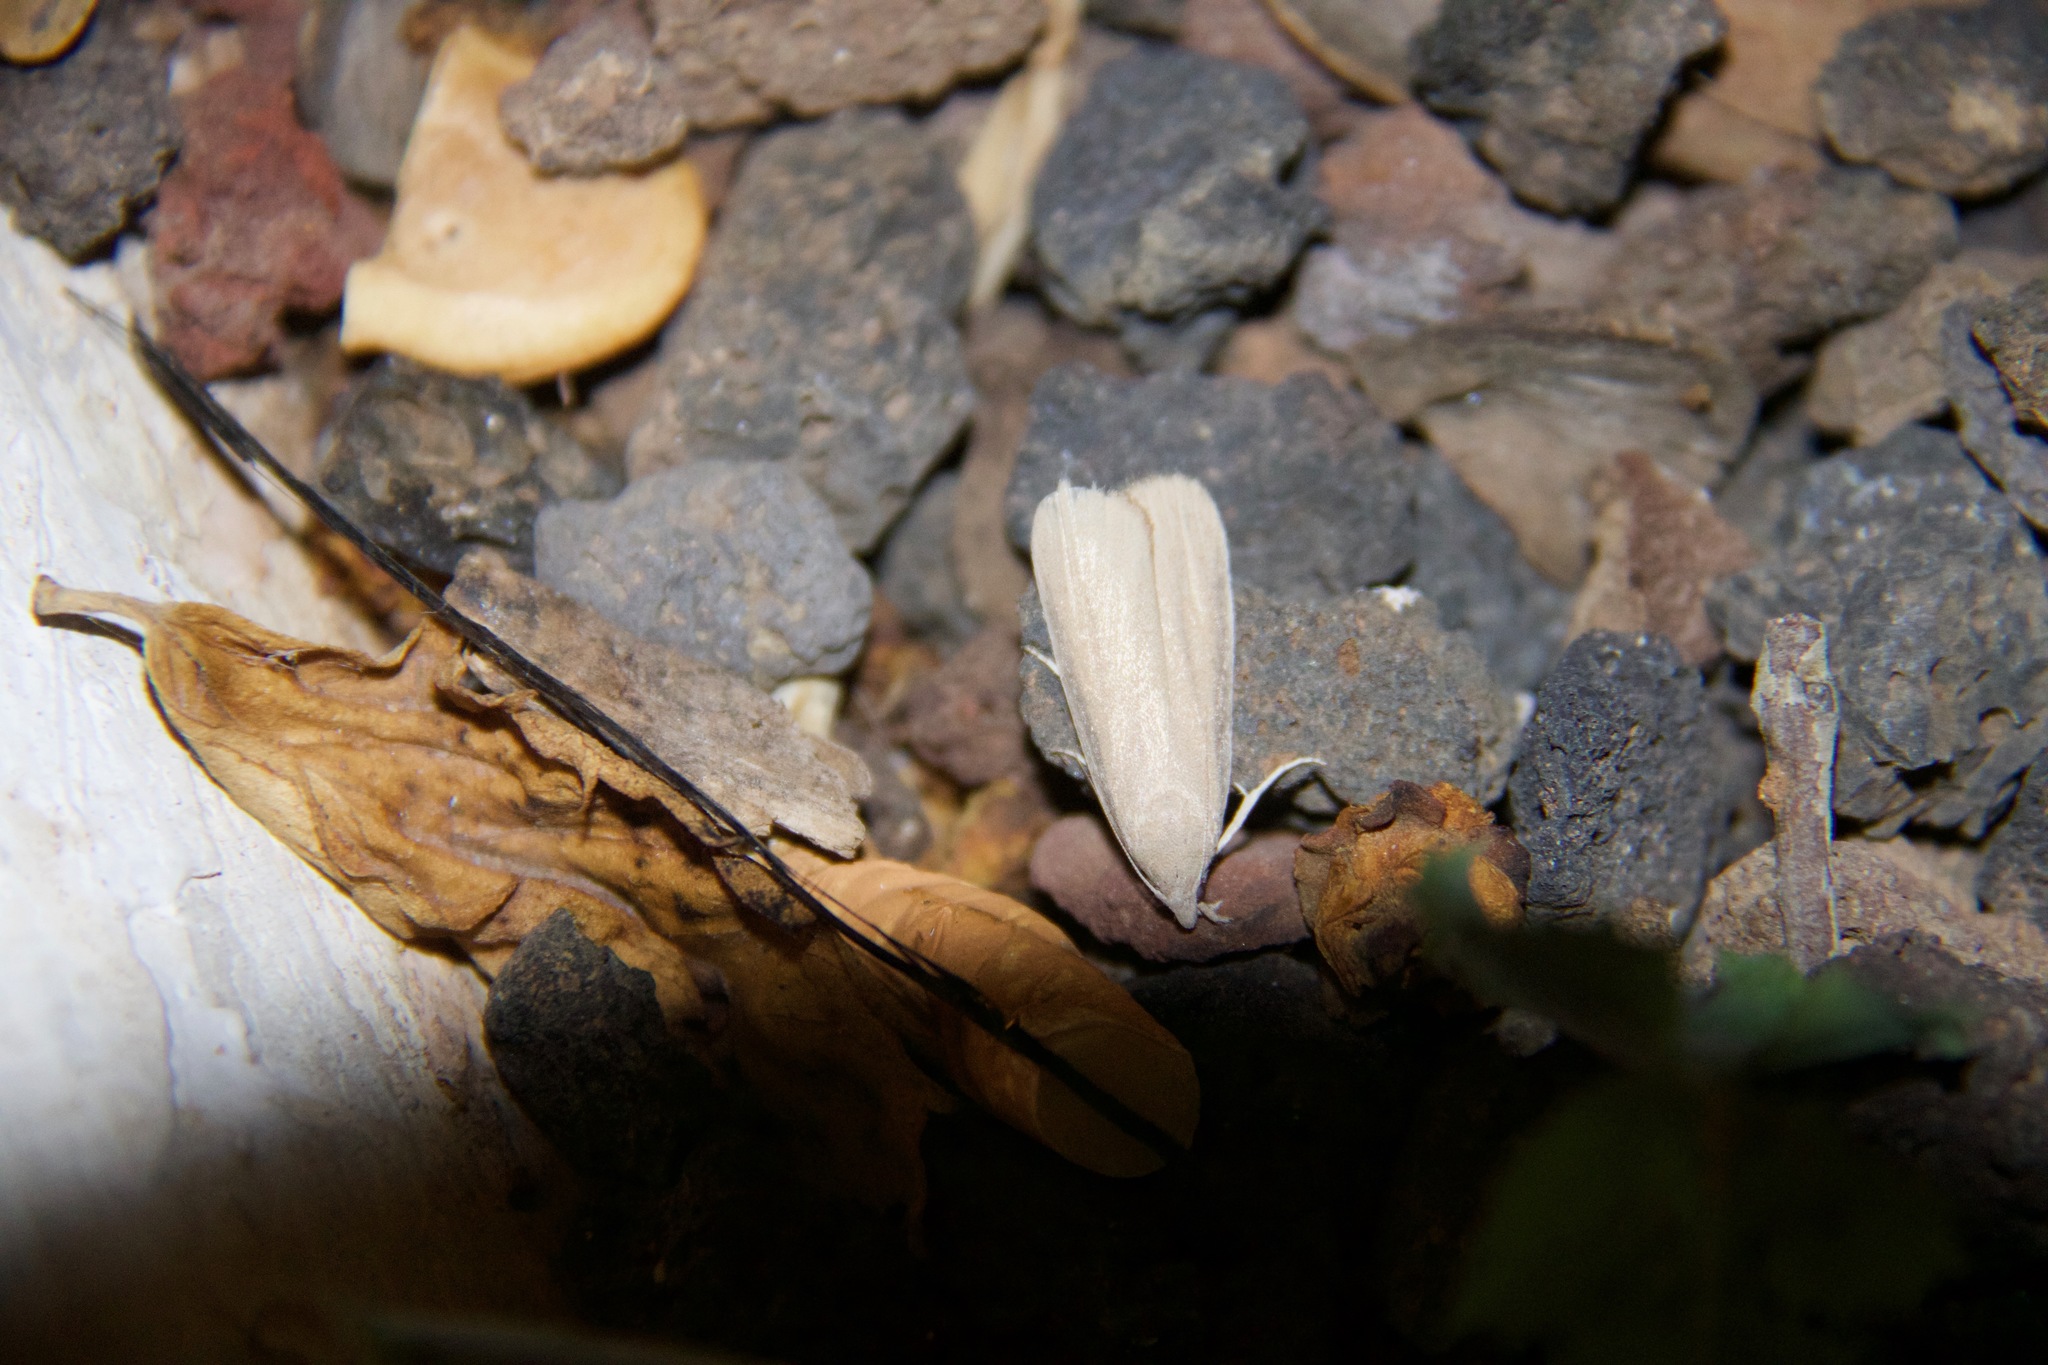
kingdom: Animalia
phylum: Arthropoda
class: Insecta
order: Lepidoptera
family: Pyralidae
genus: Arenipses
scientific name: Arenipses sabella
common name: Large date moth
